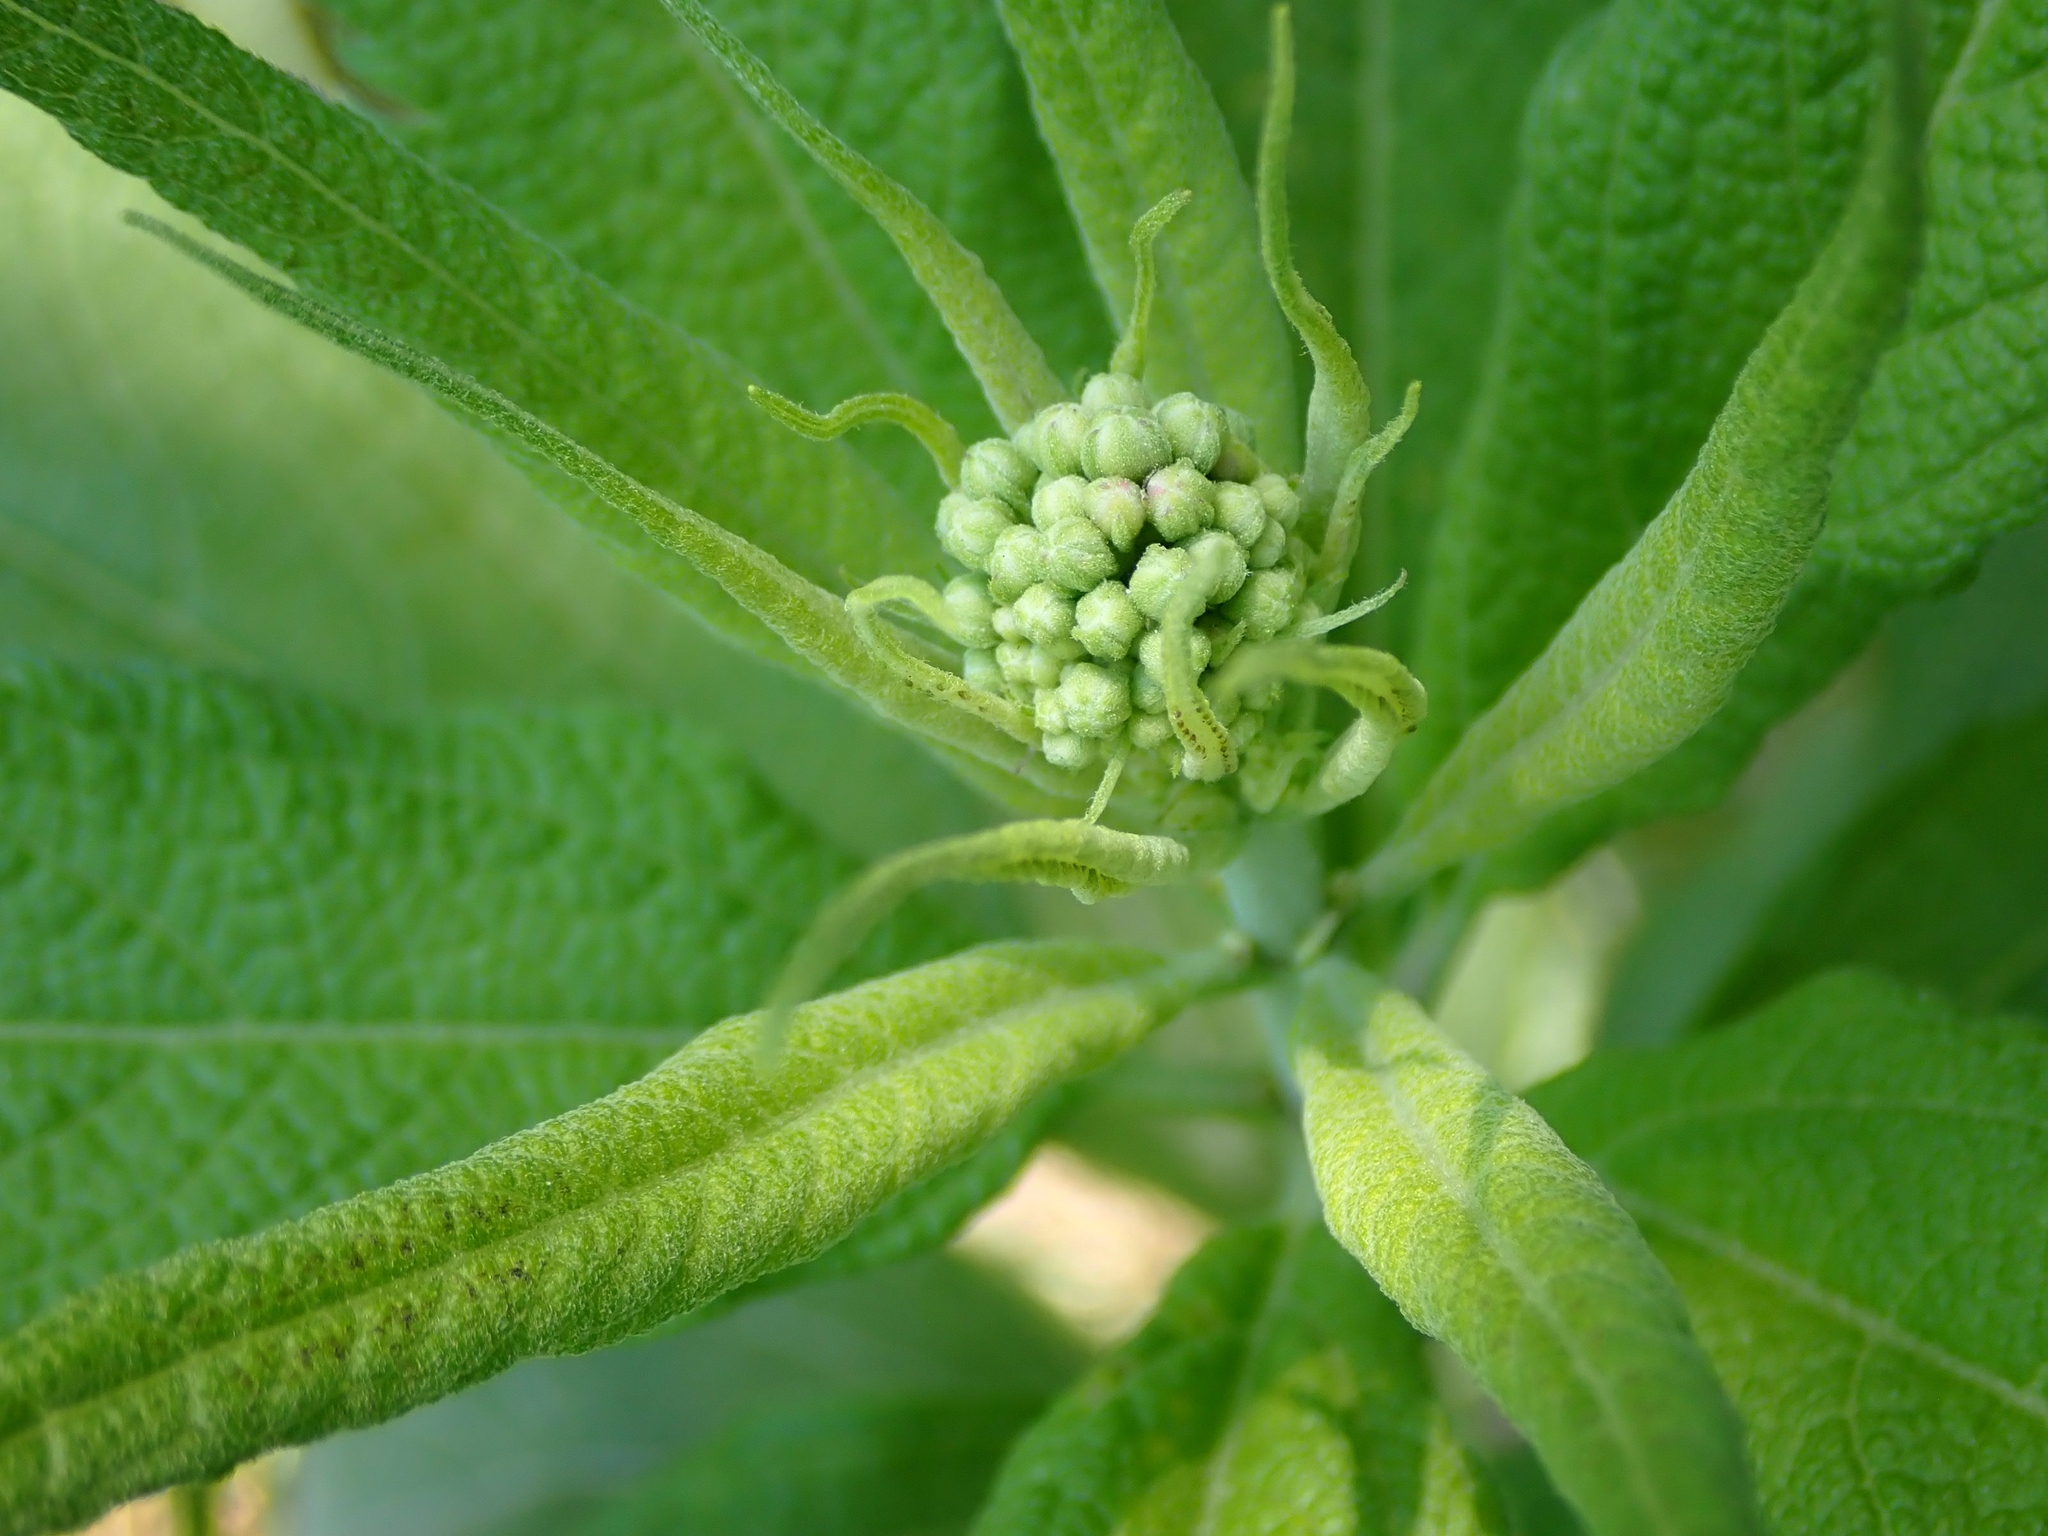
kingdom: Plantae
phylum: Tracheophyta
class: Magnoliopsida
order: Asterales
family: Asteraceae
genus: Eutrochium
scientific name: Eutrochium maculatum
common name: Spotted joe pye weed
